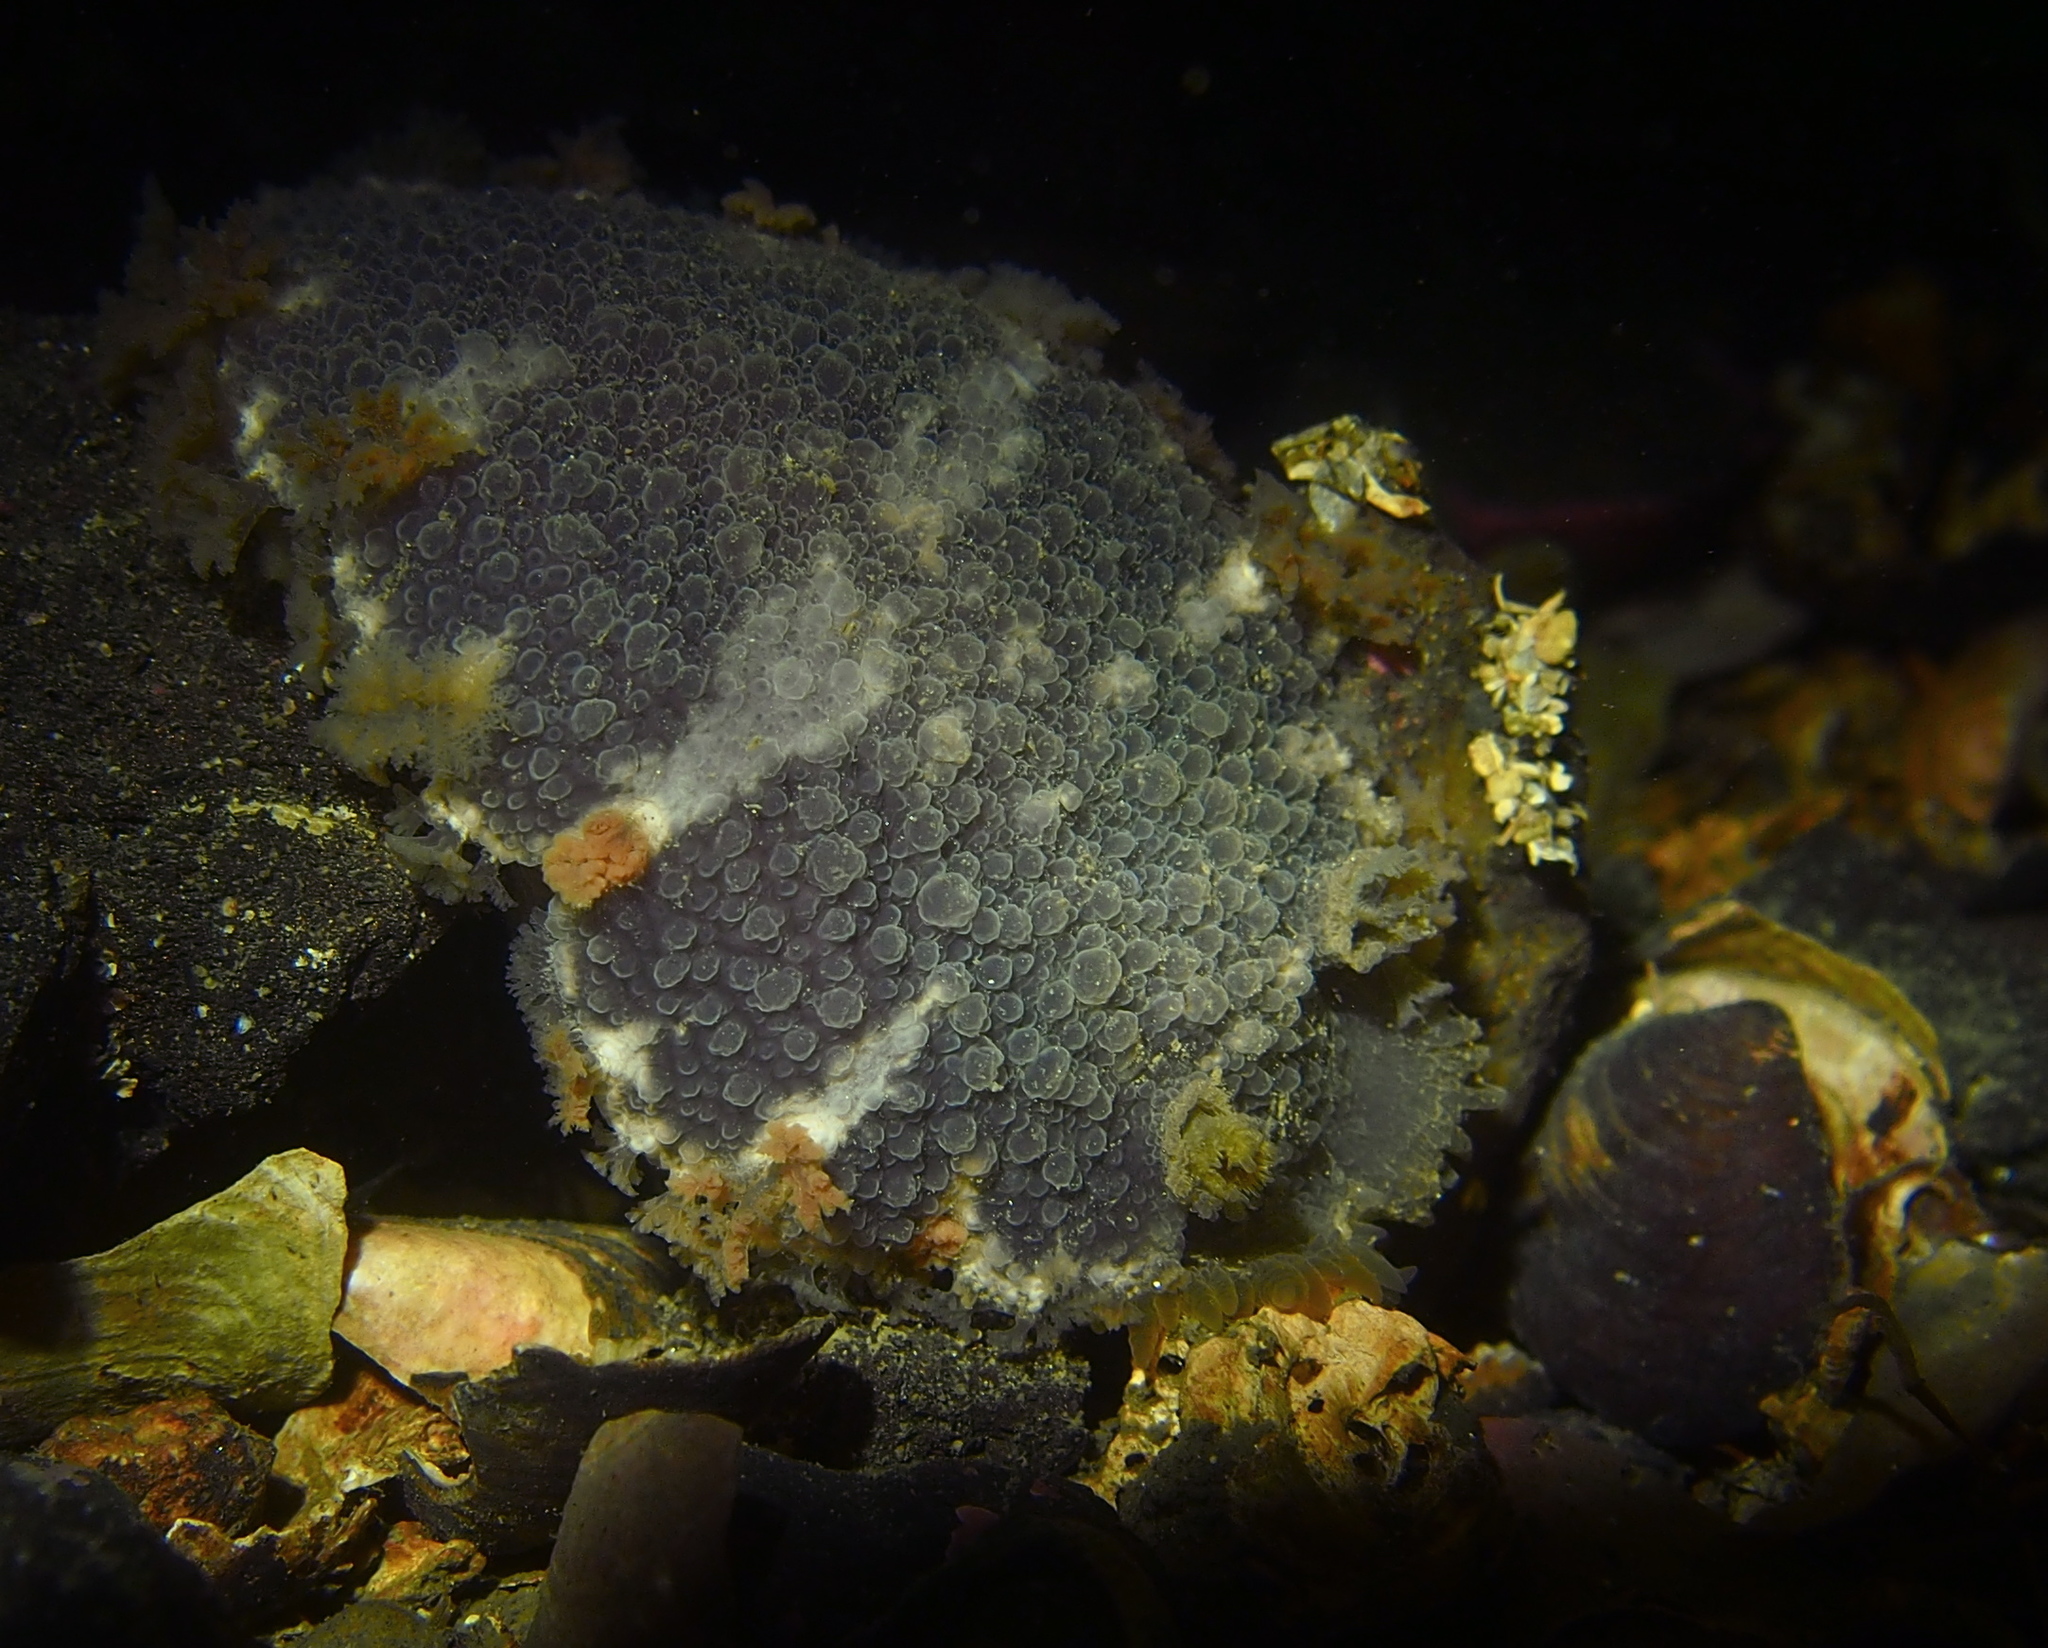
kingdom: Animalia
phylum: Mollusca
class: Gastropoda
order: Nudibranchia
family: Tritoniidae
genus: Tritonia
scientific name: Tritonia hombergii
